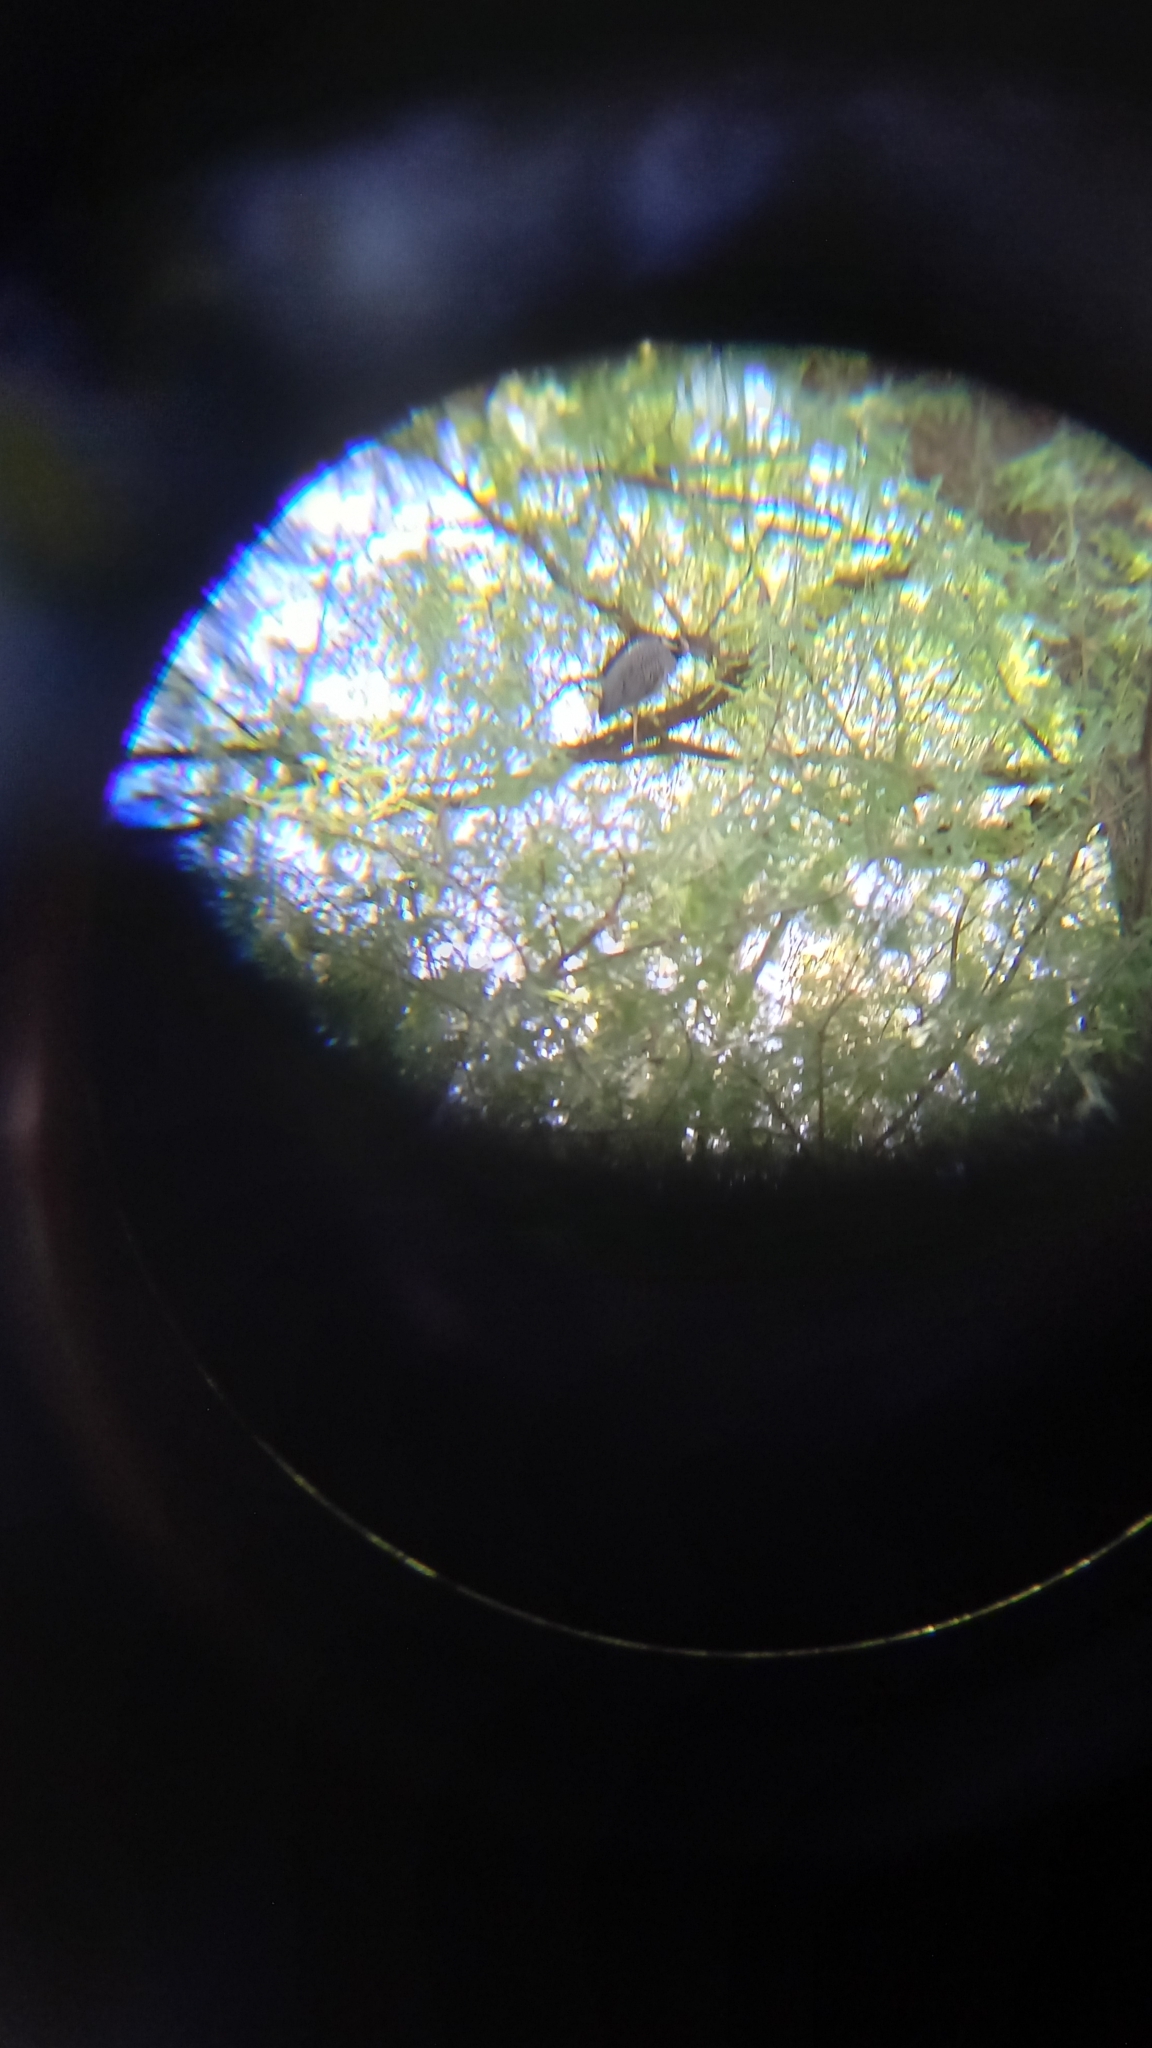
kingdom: Animalia
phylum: Chordata
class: Aves
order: Pelecaniformes
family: Ardeidae
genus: Nyctanassa
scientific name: Nyctanassa violacea
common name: Yellow-crowned night heron
